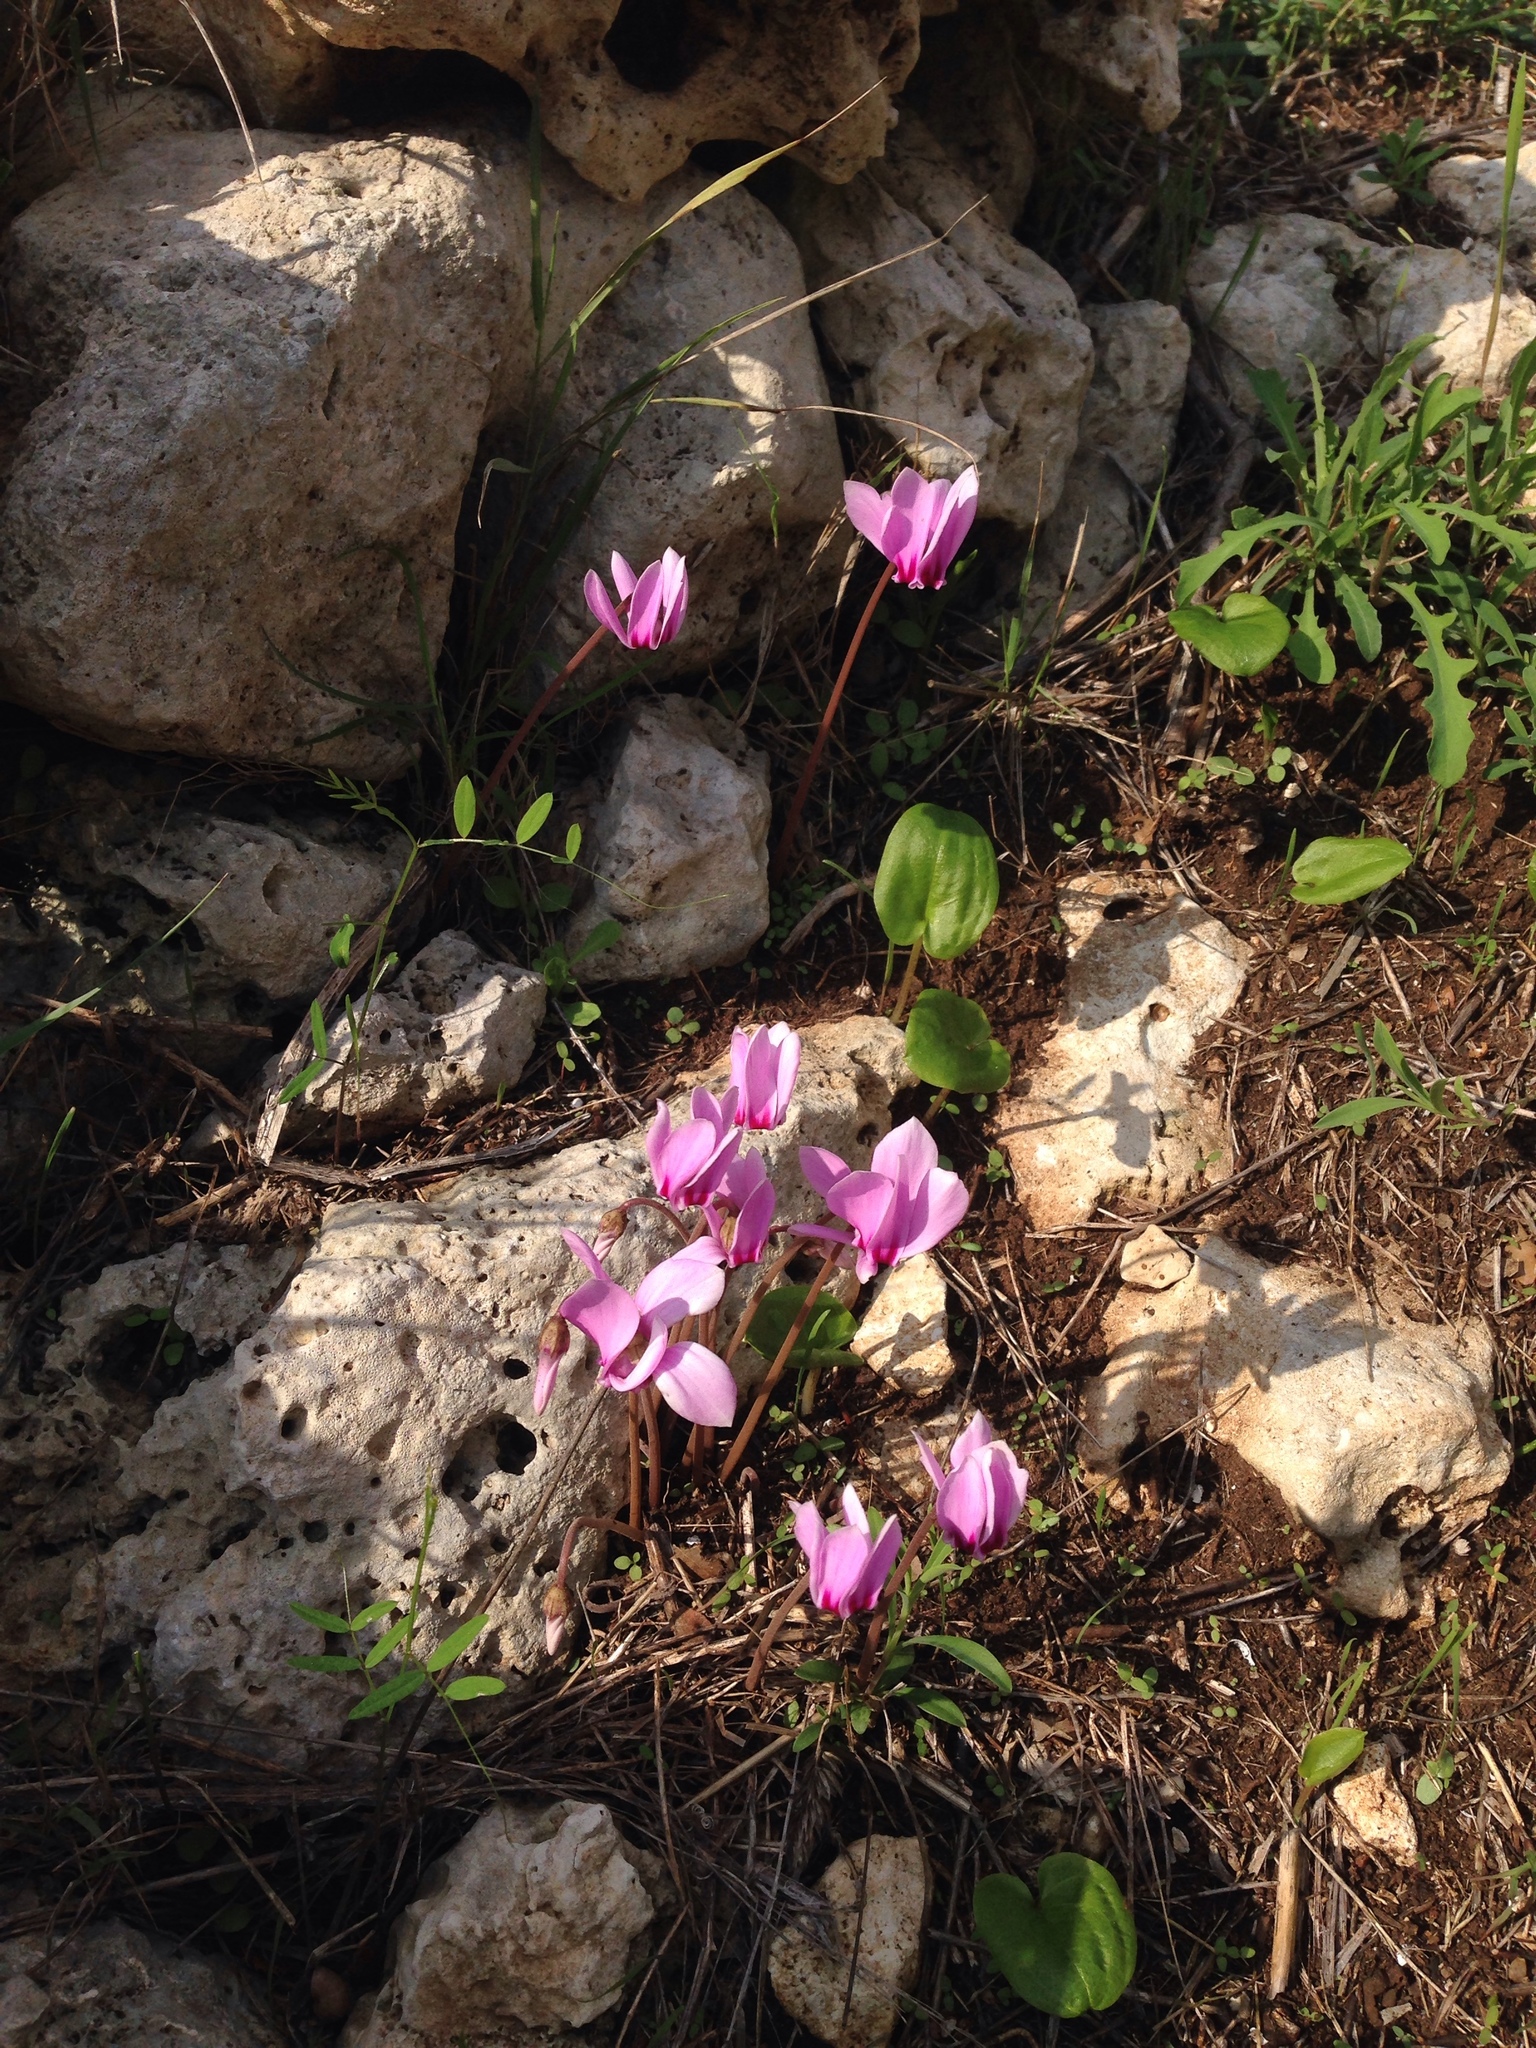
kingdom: Plantae
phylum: Tracheophyta
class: Magnoliopsida
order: Ericales
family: Primulaceae
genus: Cyclamen
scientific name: Cyclamen hederifolium
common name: Sowbread
